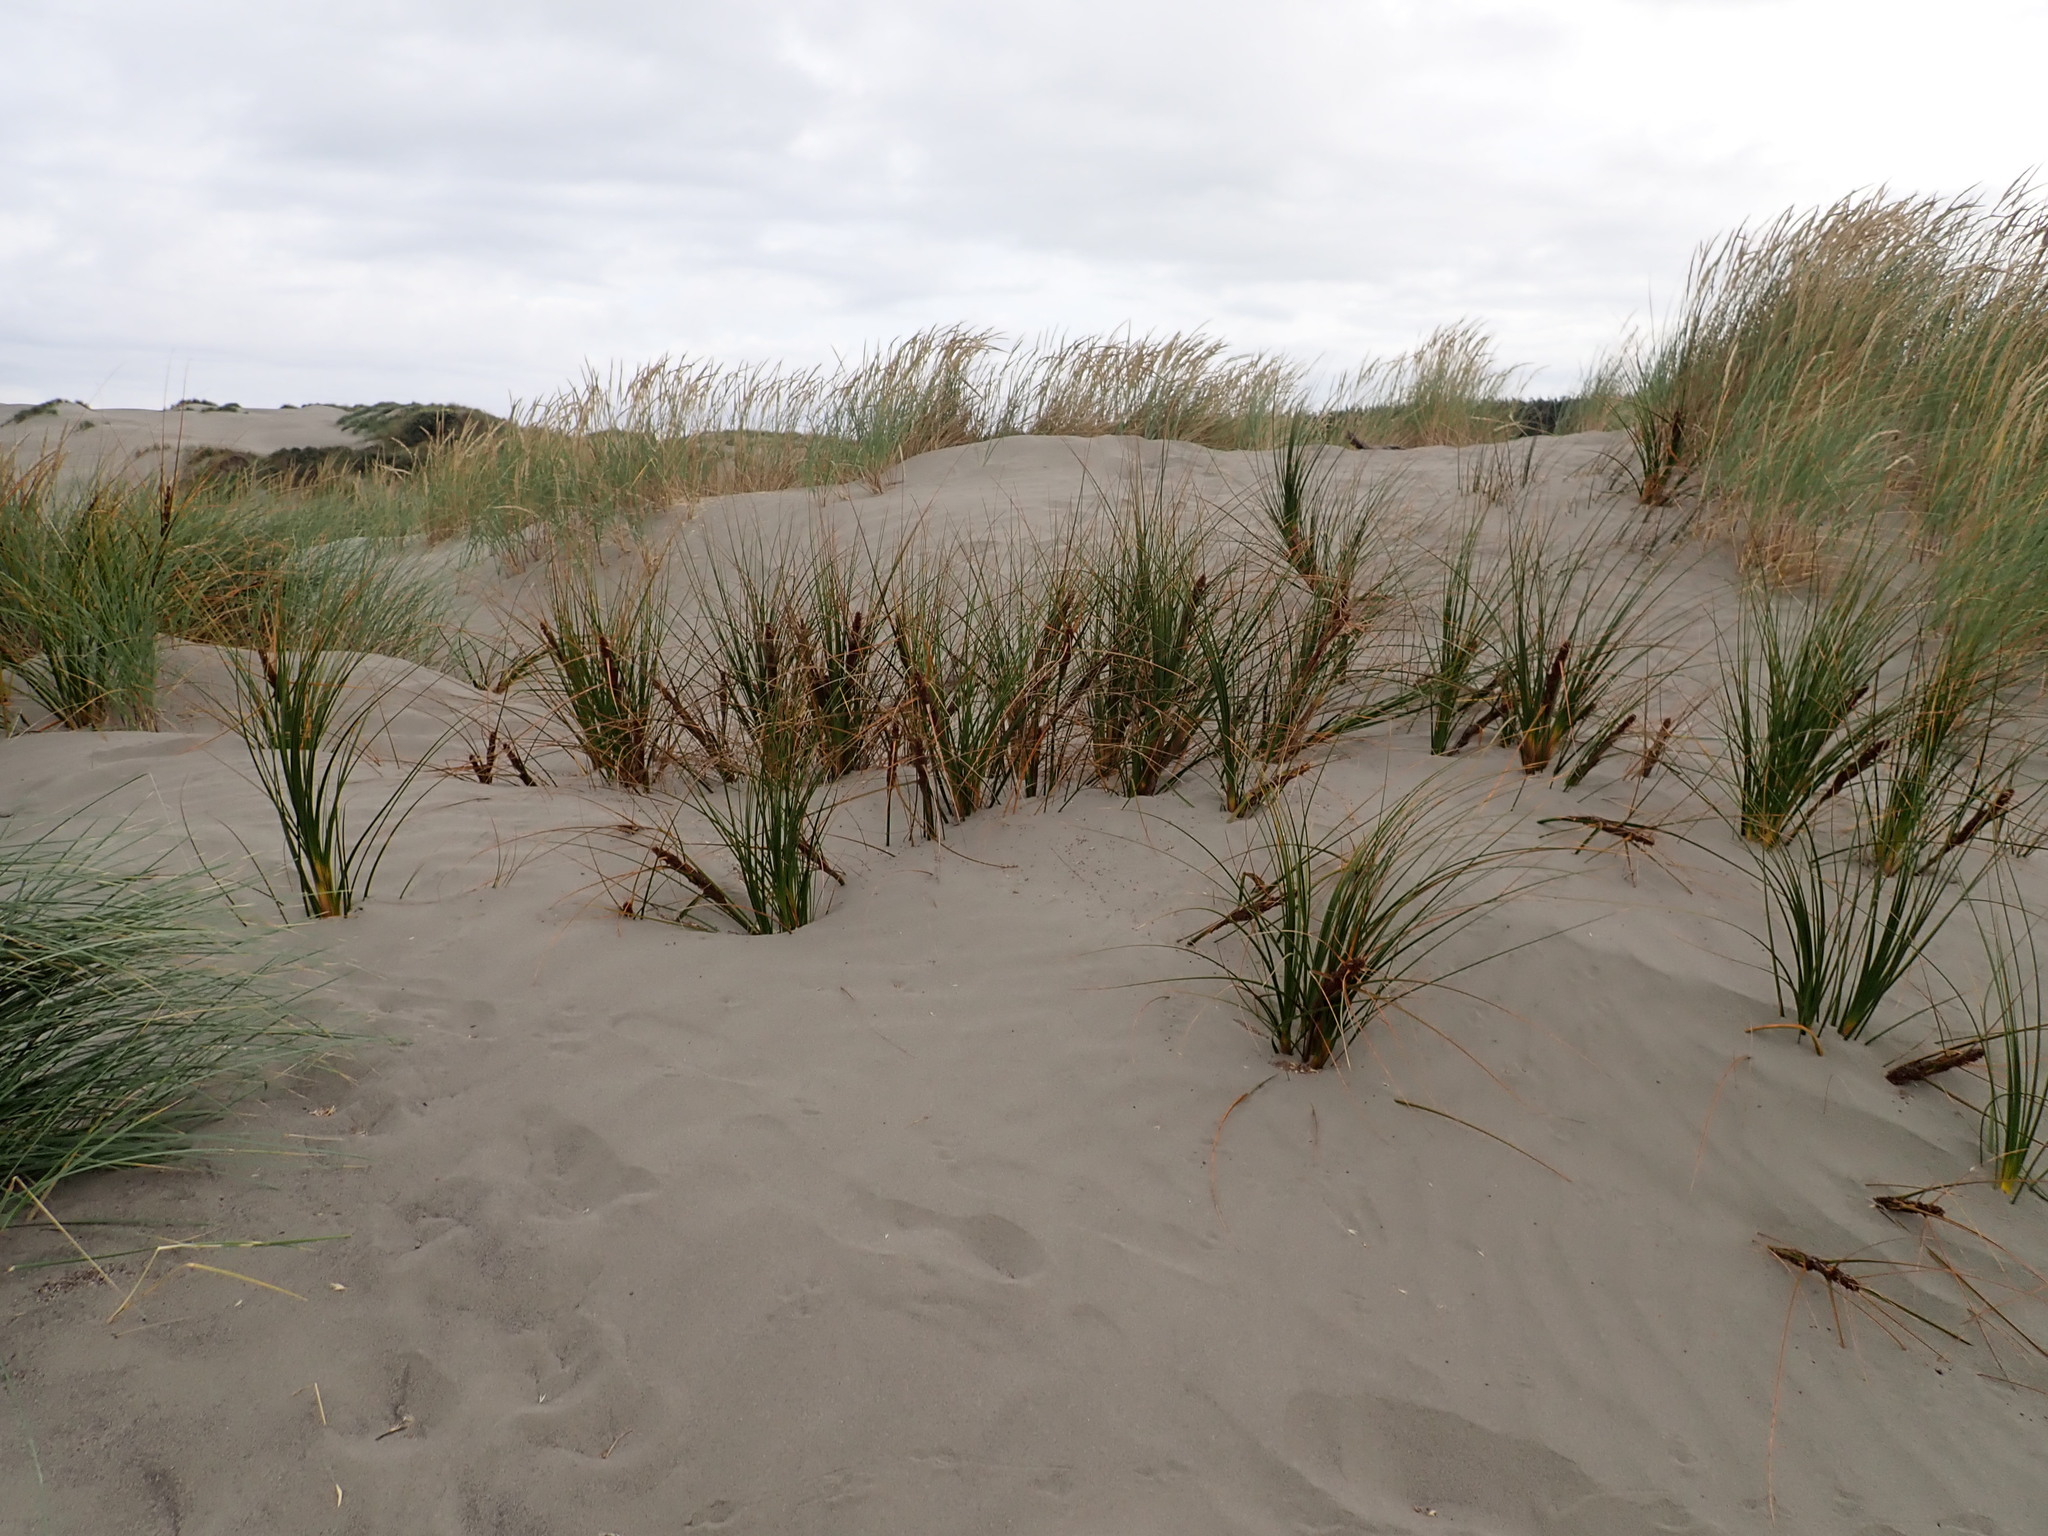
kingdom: Plantae
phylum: Tracheophyta
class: Liliopsida
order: Poales
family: Cyperaceae
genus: Ficinia
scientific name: Ficinia spiralis
